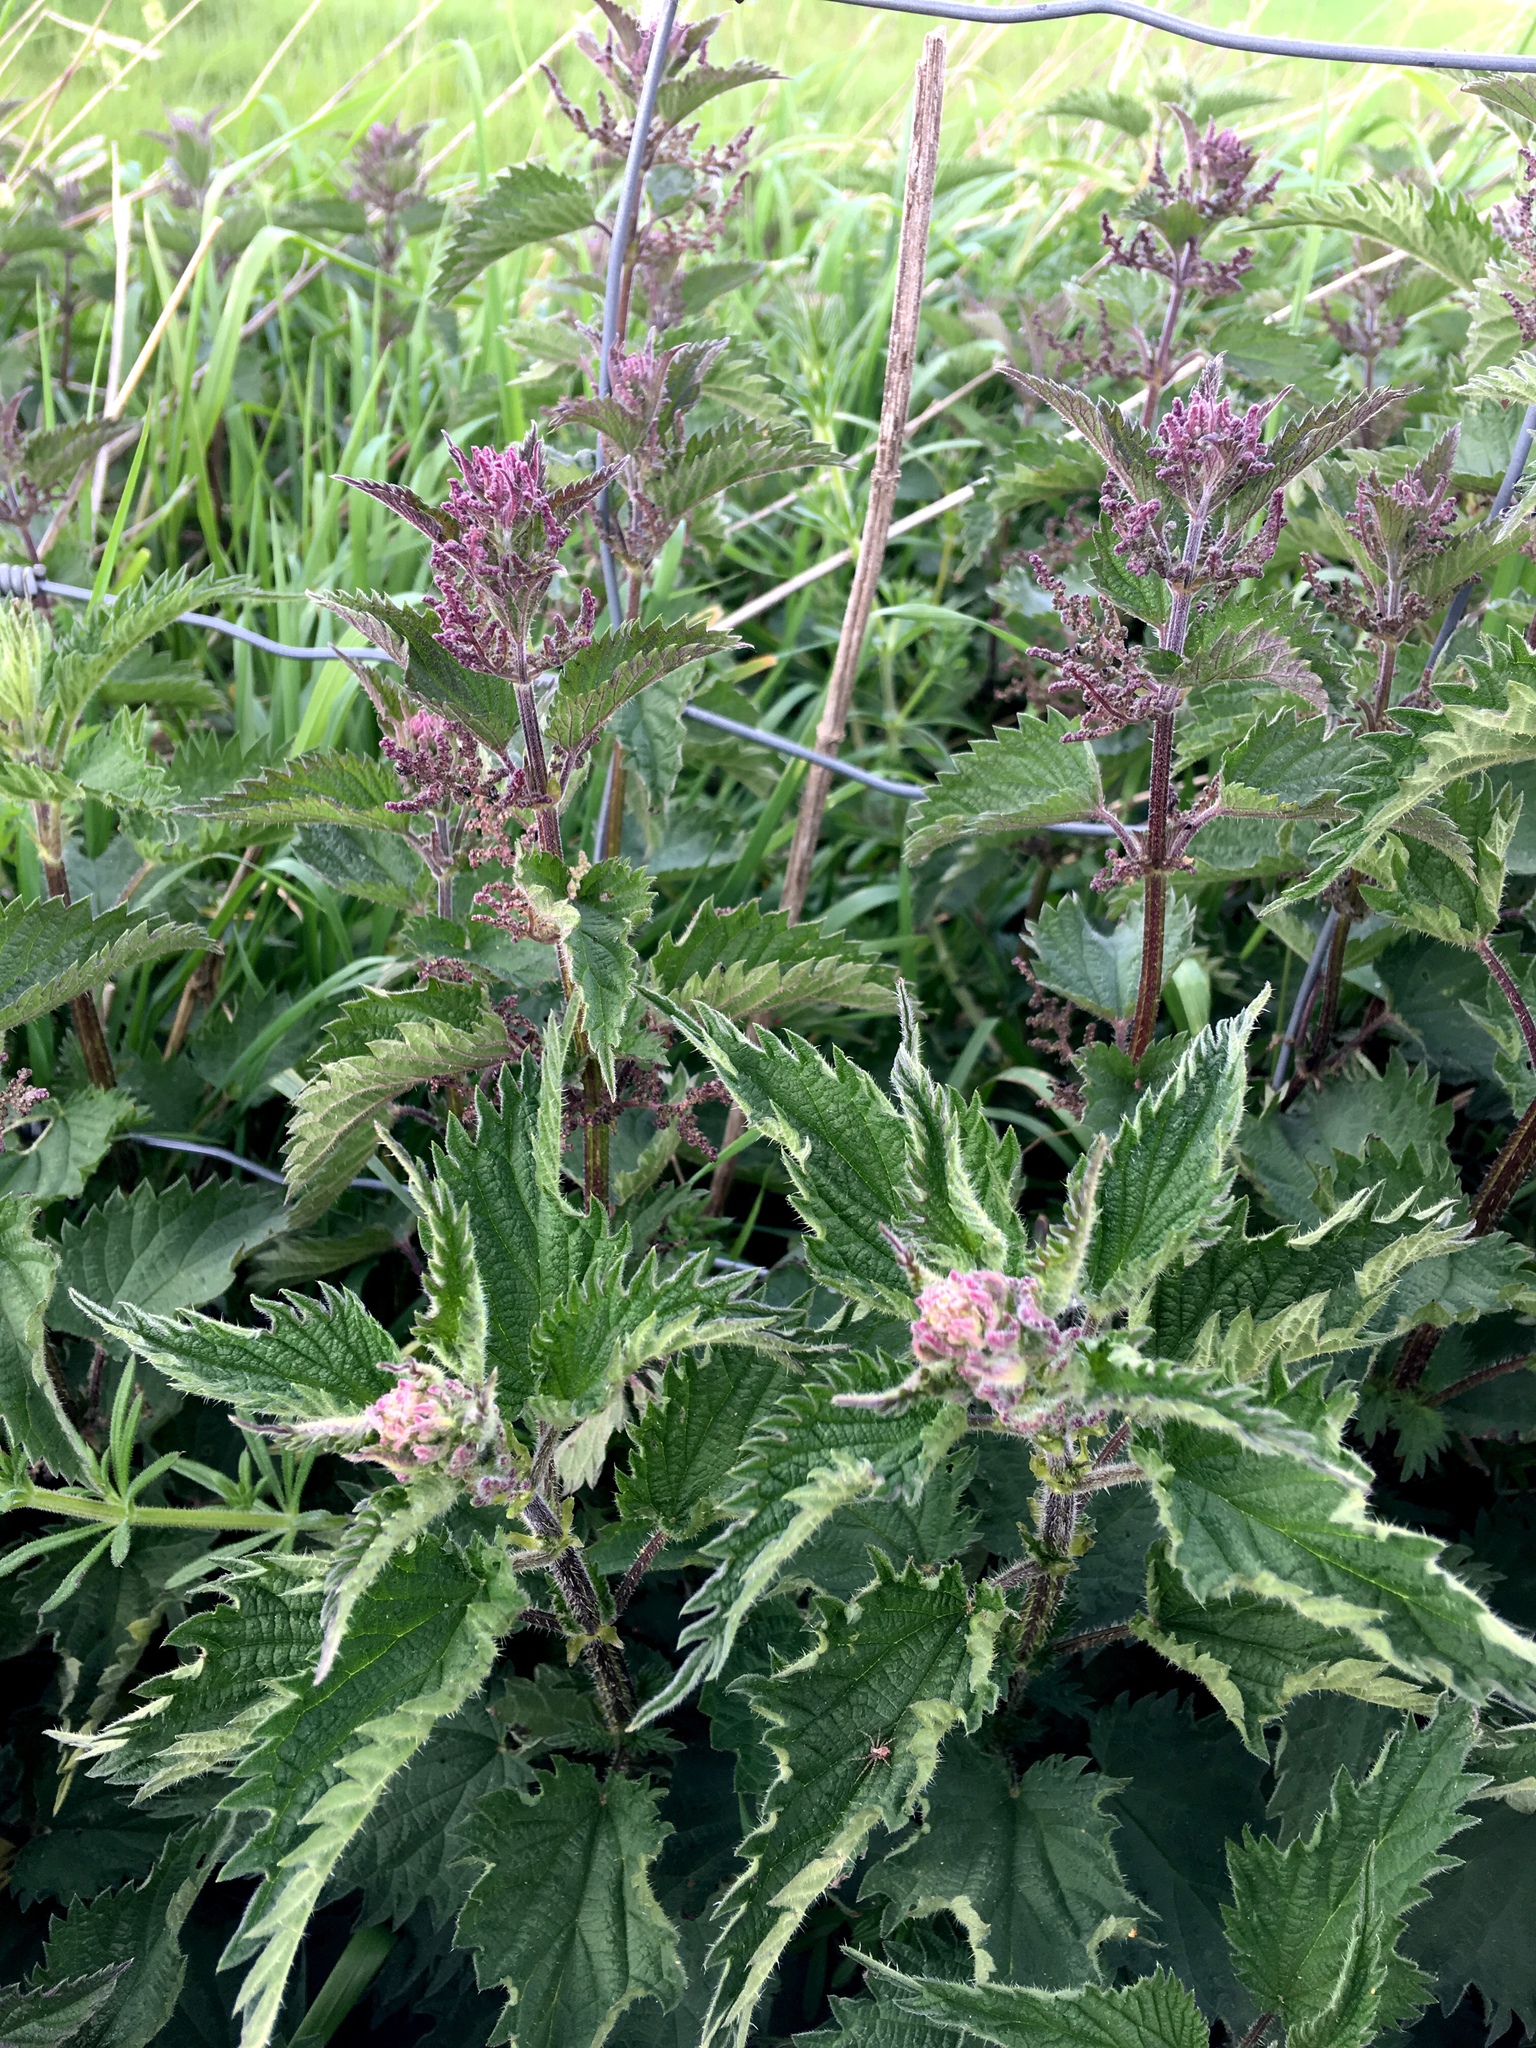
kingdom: Plantae
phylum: Tracheophyta
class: Magnoliopsida
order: Rosales
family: Urticaceae
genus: Urtica
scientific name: Urtica dioica
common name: Common nettle
